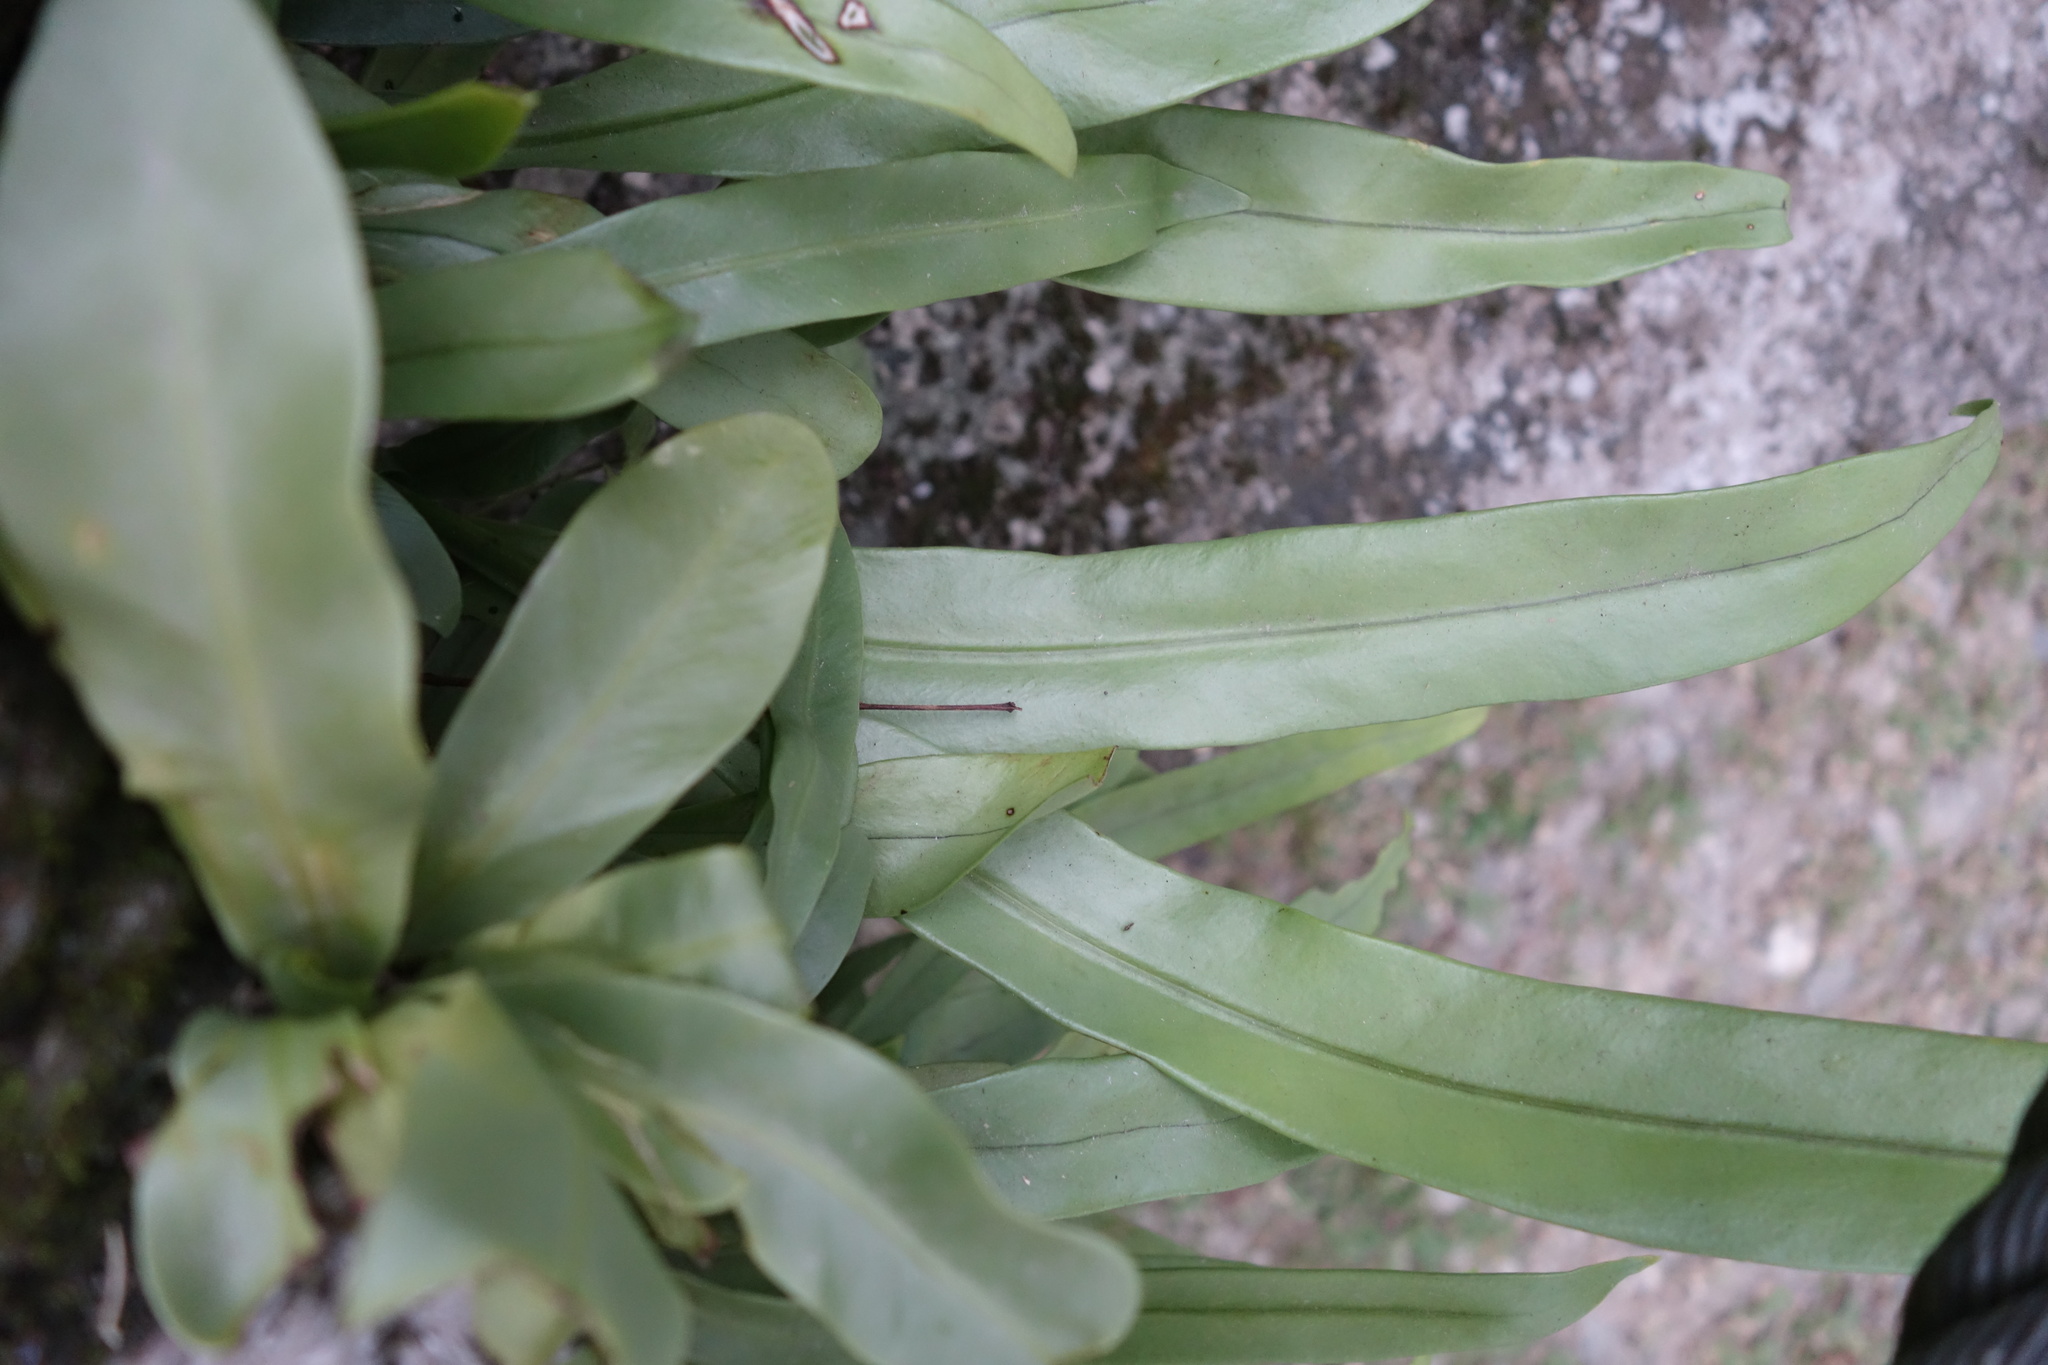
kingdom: Plantae
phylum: Tracheophyta
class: Polypodiopsida
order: Polypodiales
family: Polypodiaceae
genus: Microsorum
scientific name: Microsorum punctatum
